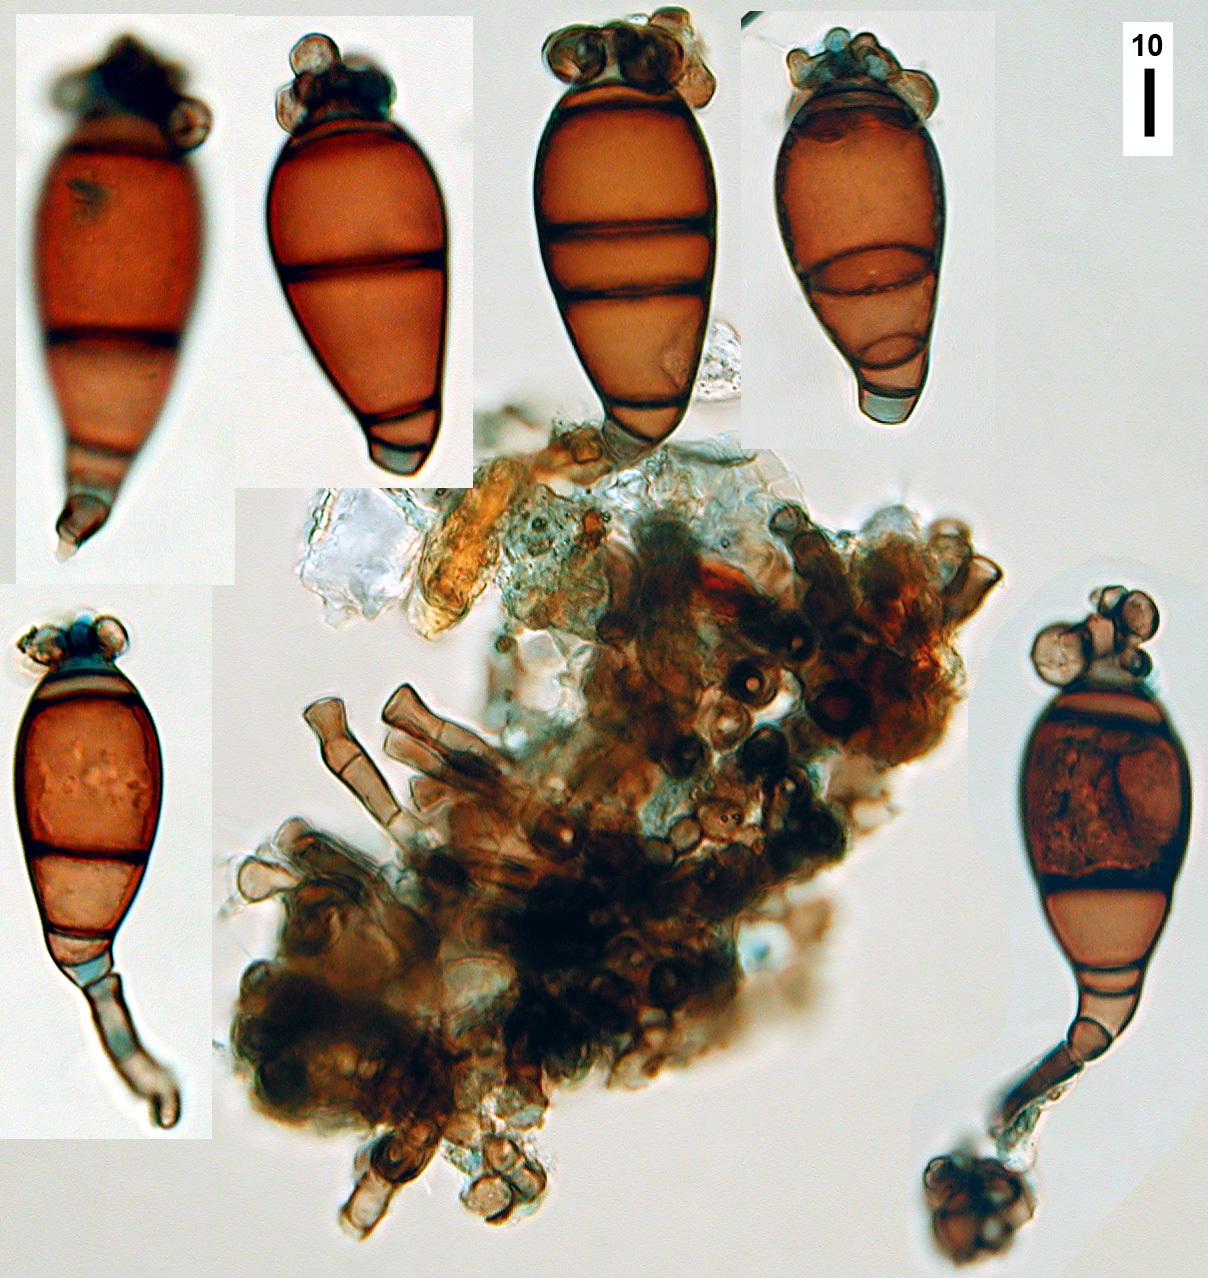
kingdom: Fungi
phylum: Ascomycota
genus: Hadrosporium
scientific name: Hadrosporium dingleyae
